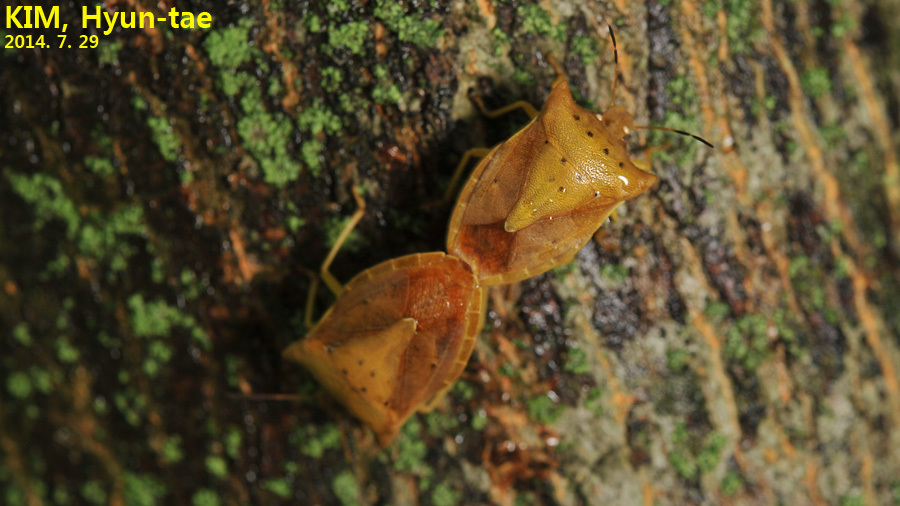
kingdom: Animalia
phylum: Arthropoda
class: Insecta
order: Hemiptera
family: Pentatomidae
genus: Lelia
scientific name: Lelia decempunctata
